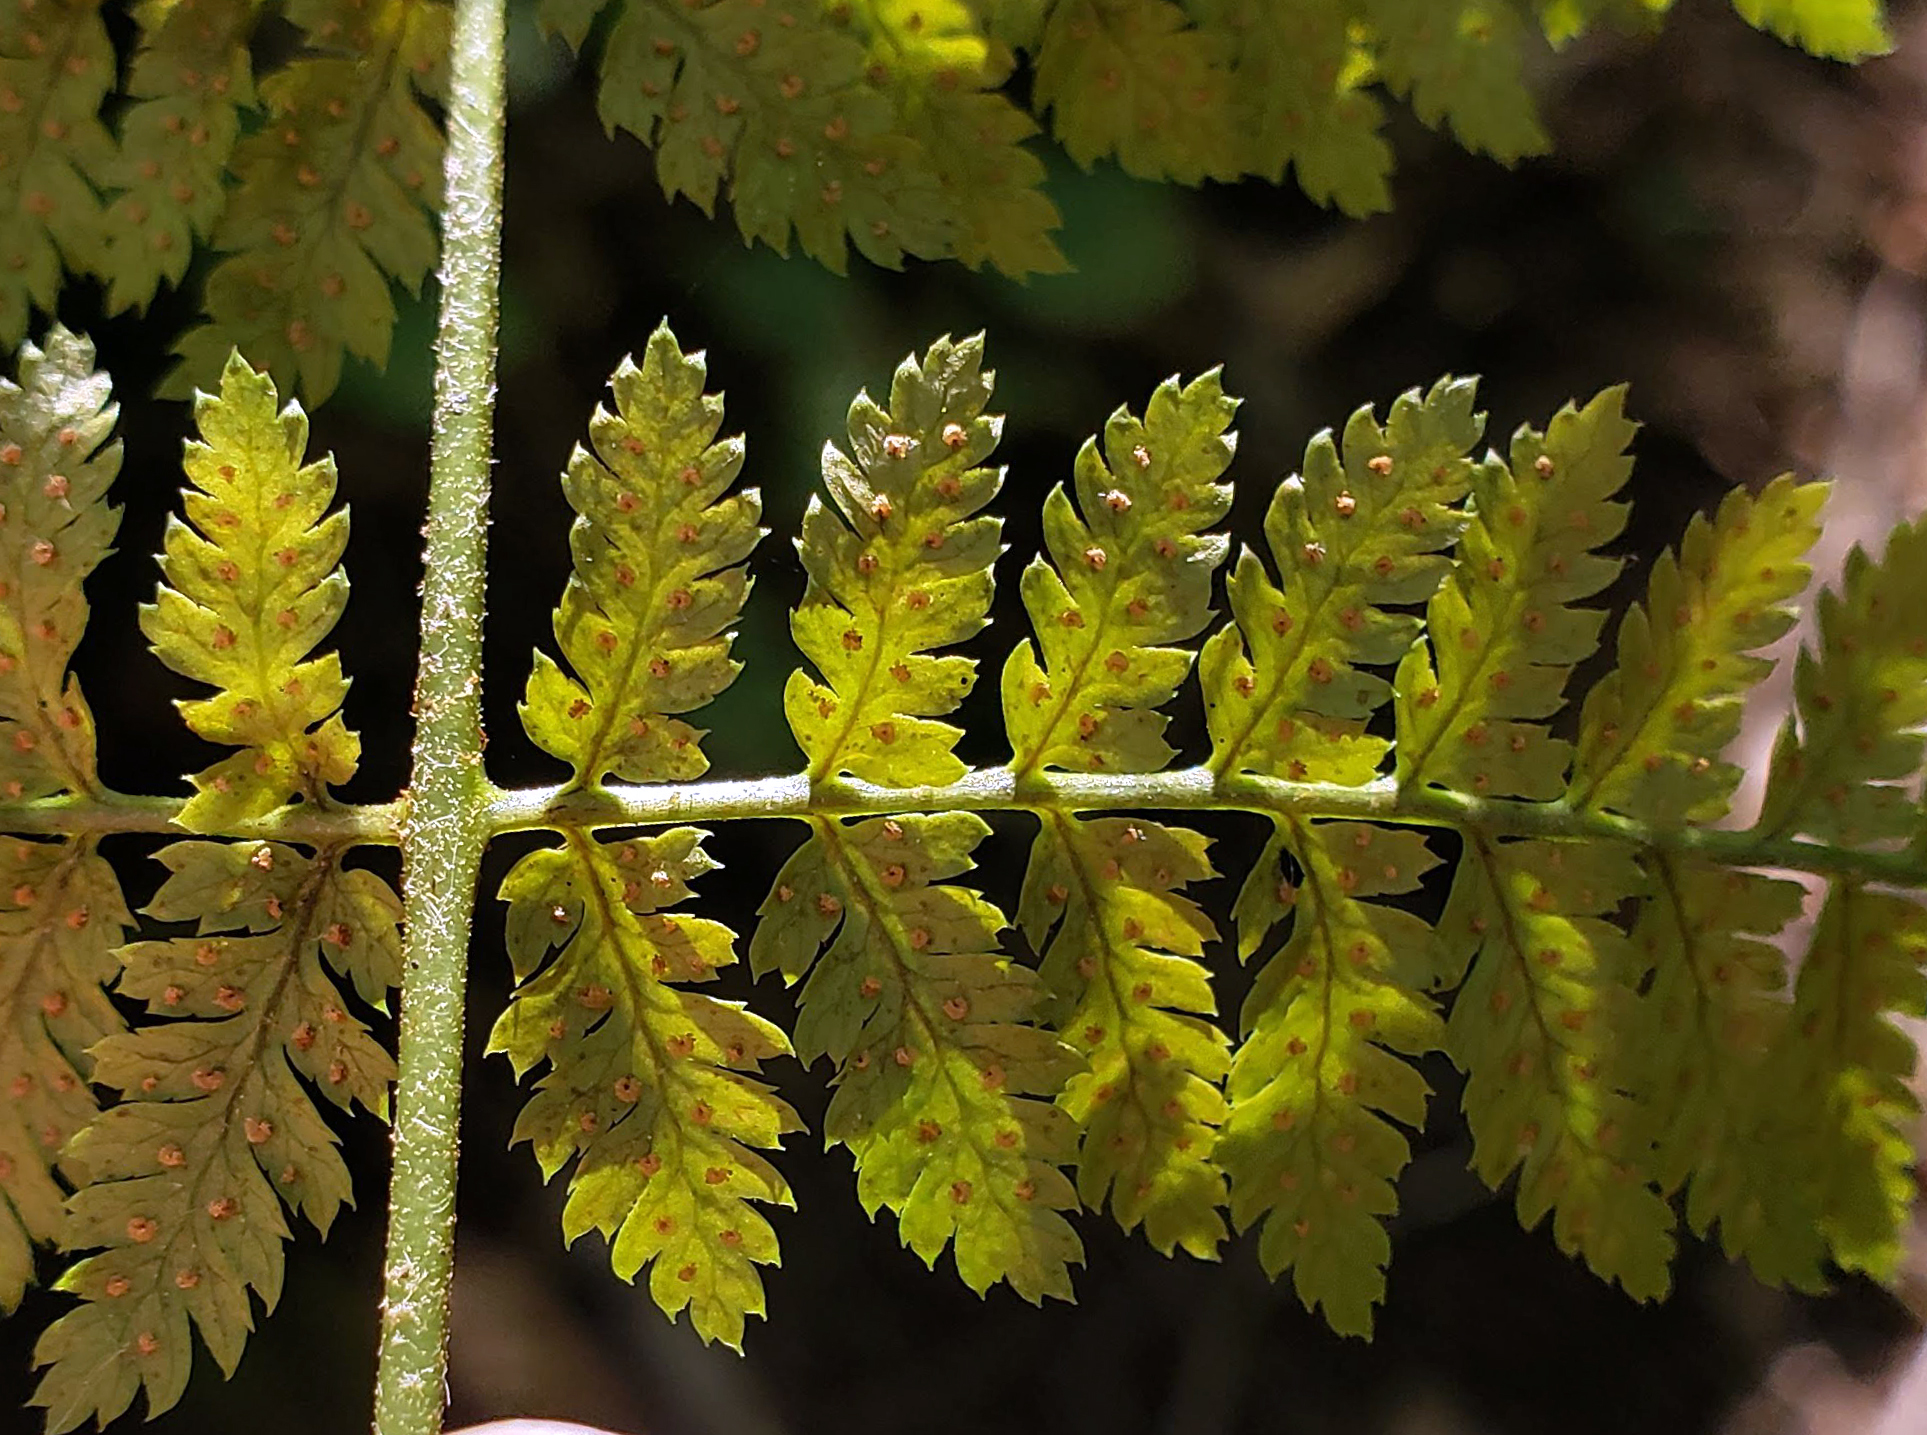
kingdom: Plantae
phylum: Tracheophyta
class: Polypodiopsida
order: Polypodiales
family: Dryopteridaceae
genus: Dryopteris
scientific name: Dryopteris carthusiana
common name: Narrow buckler-fern
